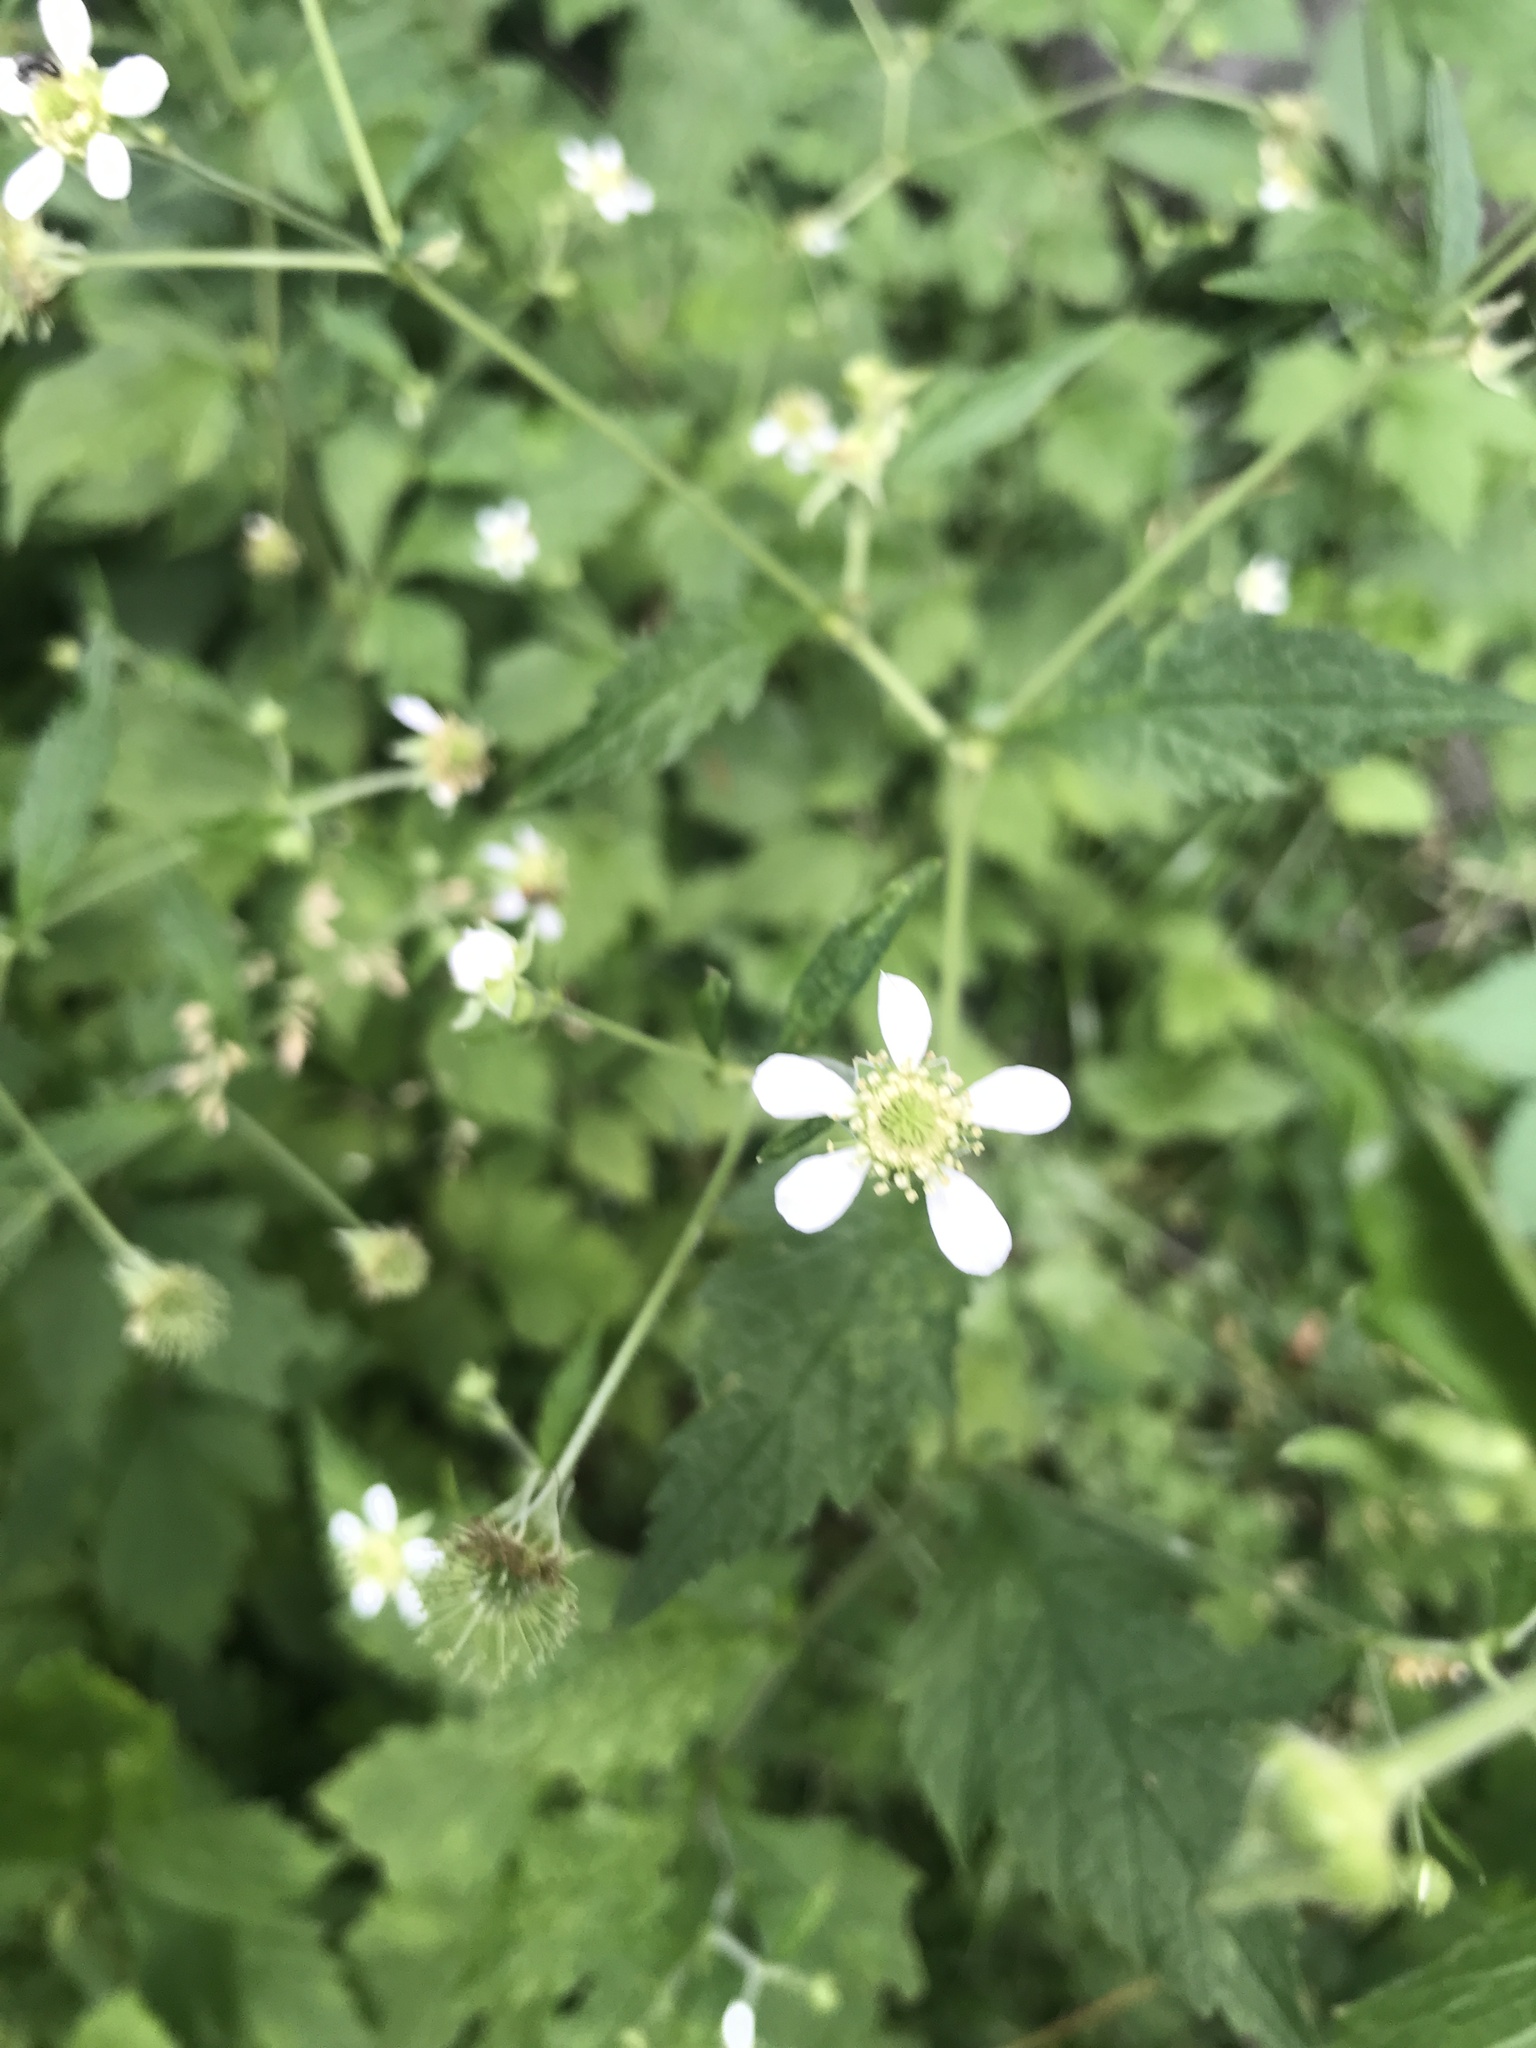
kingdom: Plantae
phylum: Tracheophyta
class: Magnoliopsida
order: Rosales
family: Rosaceae
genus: Geum
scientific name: Geum canadense
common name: White avens
